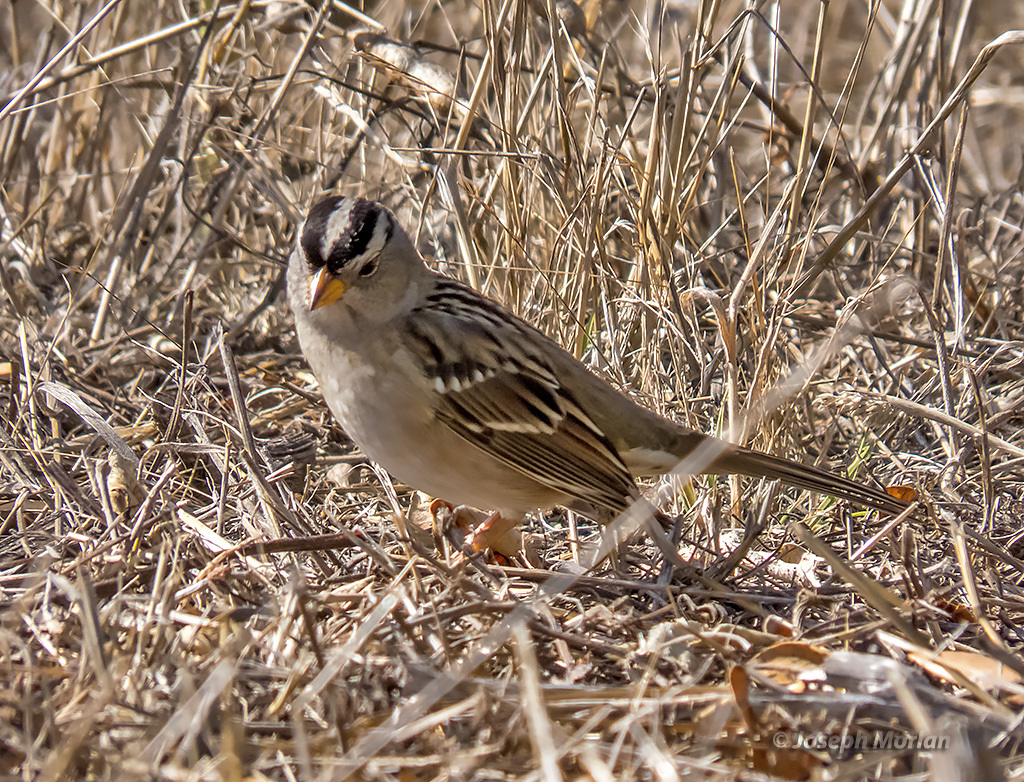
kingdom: Animalia
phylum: Chordata
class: Aves
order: Passeriformes
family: Passerellidae
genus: Zonotrichia
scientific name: Zonotrichia leucophrys
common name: White-crowned sparrow
